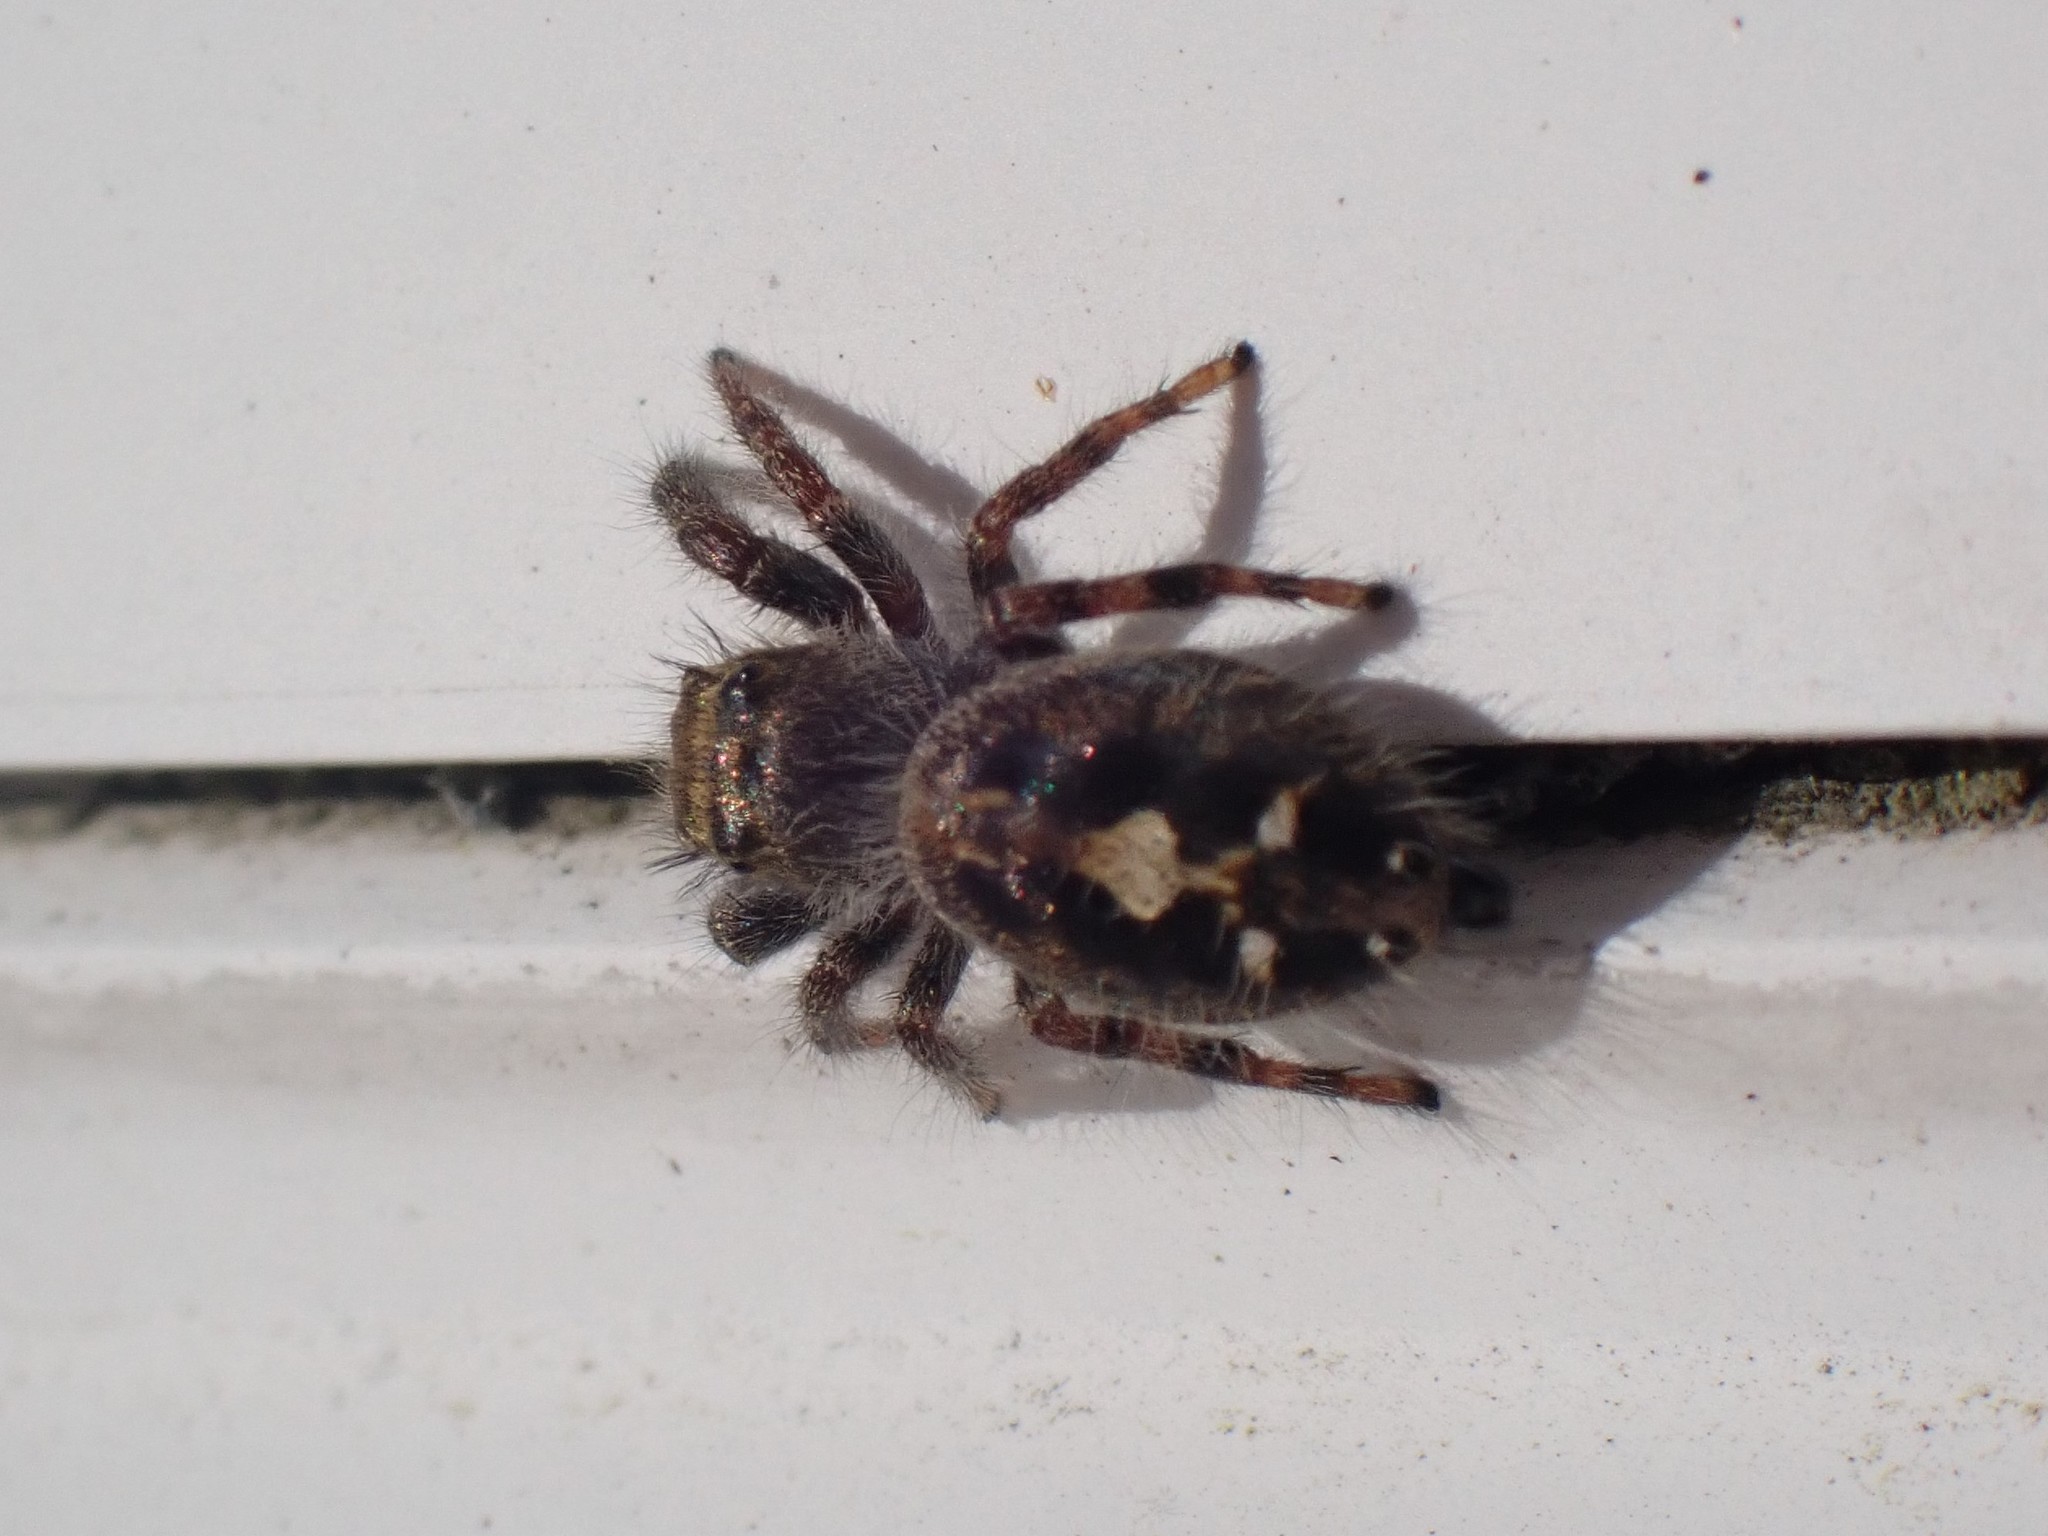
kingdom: Animalia
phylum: Arthropoda
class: Arachnida
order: Araneae
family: Salticidae
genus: Phidippus
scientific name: Phidippus audax
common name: Bold jumper
